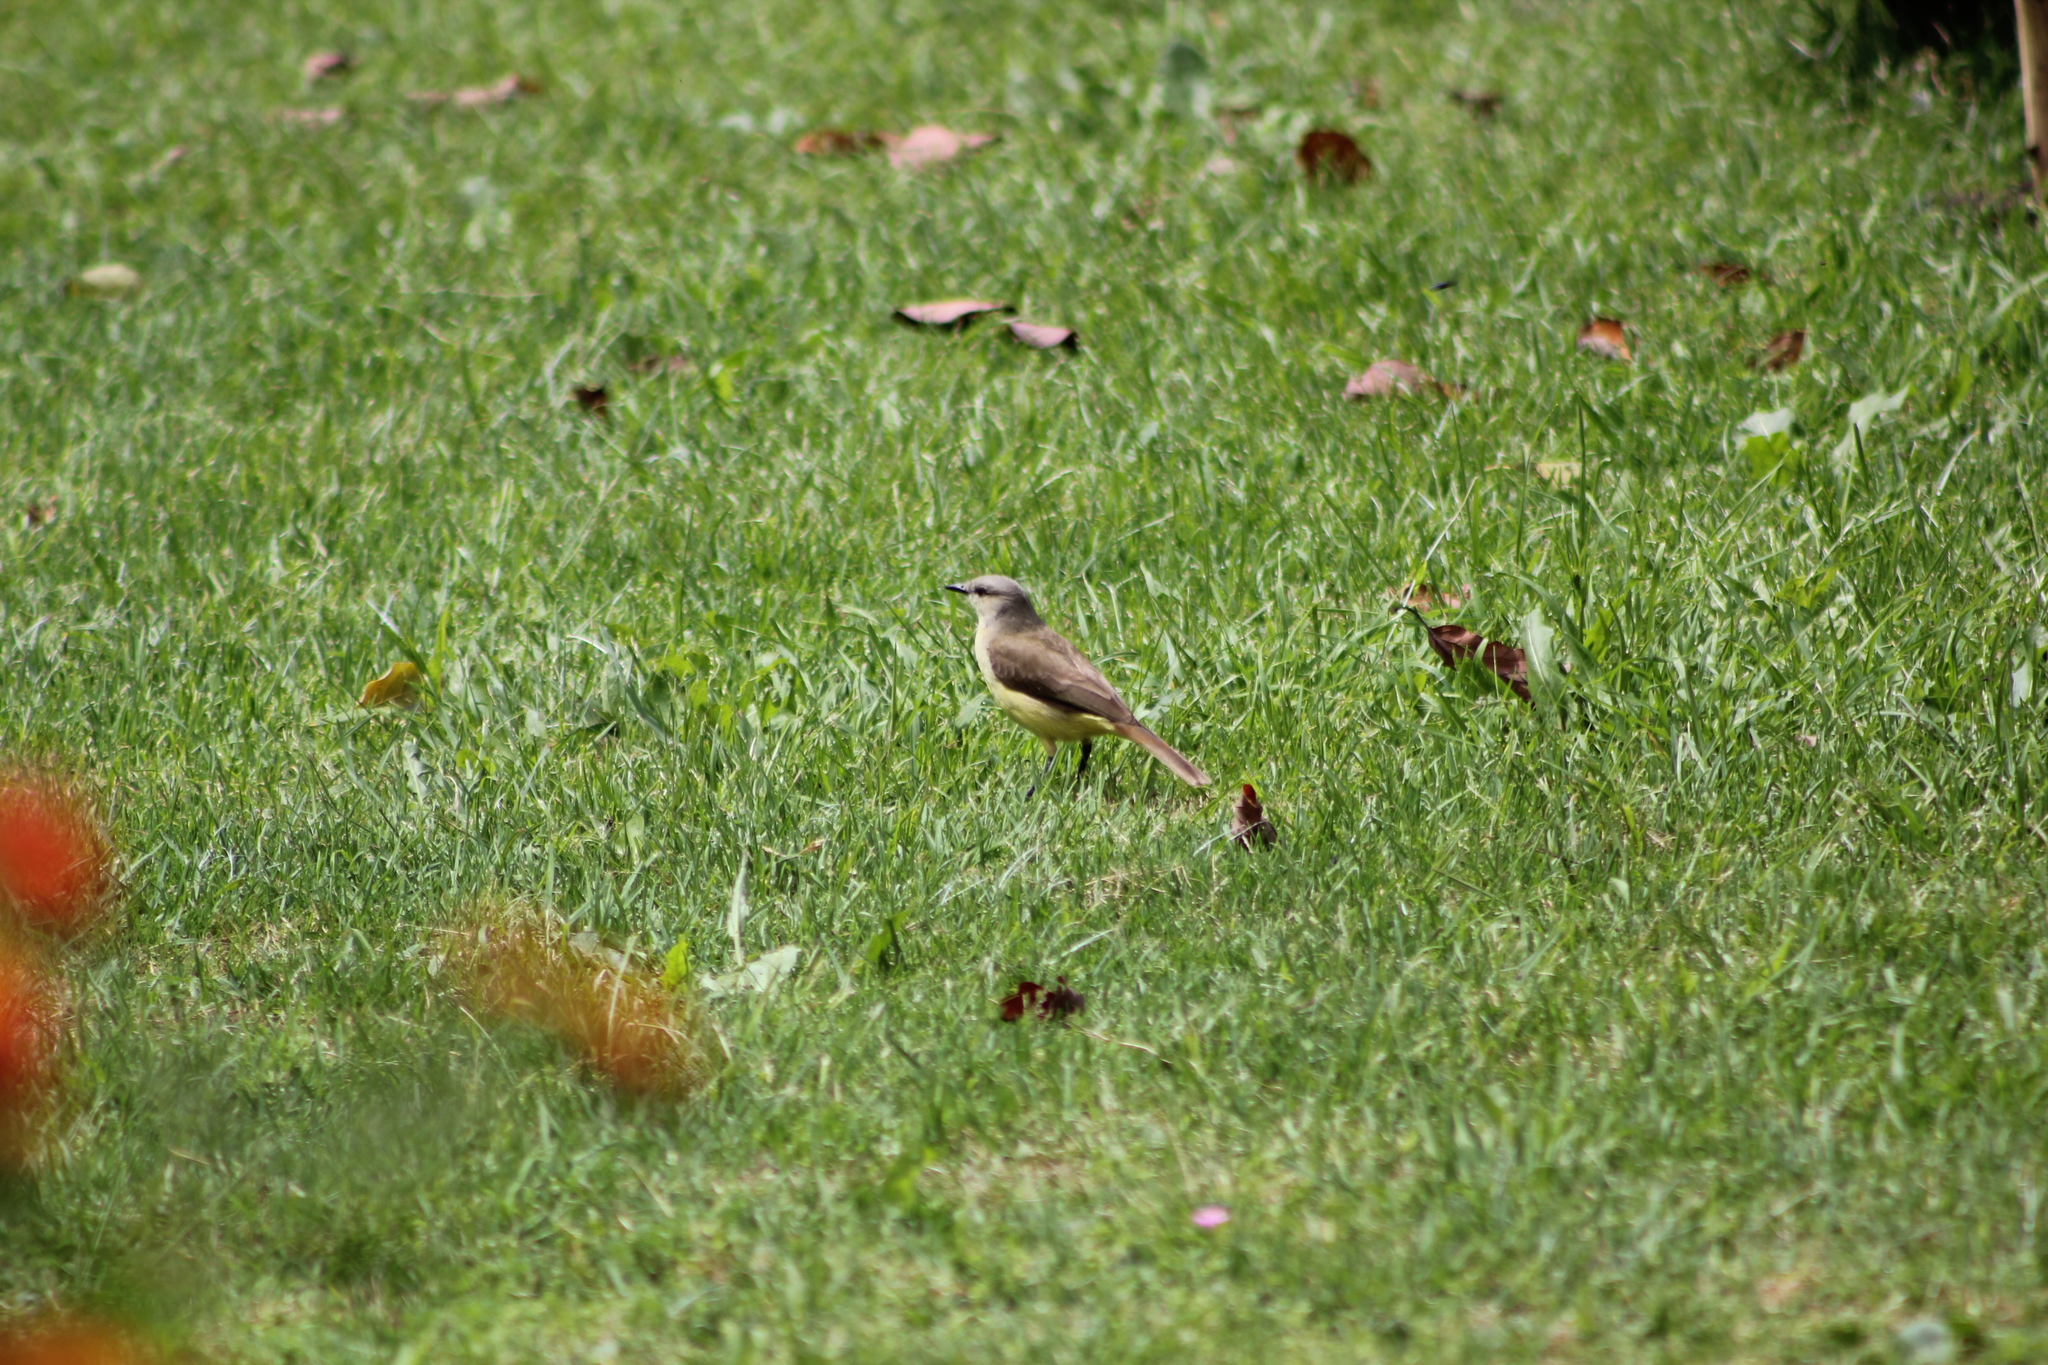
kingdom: Animalia
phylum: Chordata
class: Aves
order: Passeriformes
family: Tyrannidae
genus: Machetornis
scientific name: Machetornis rixosa
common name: Cattle tyrant
